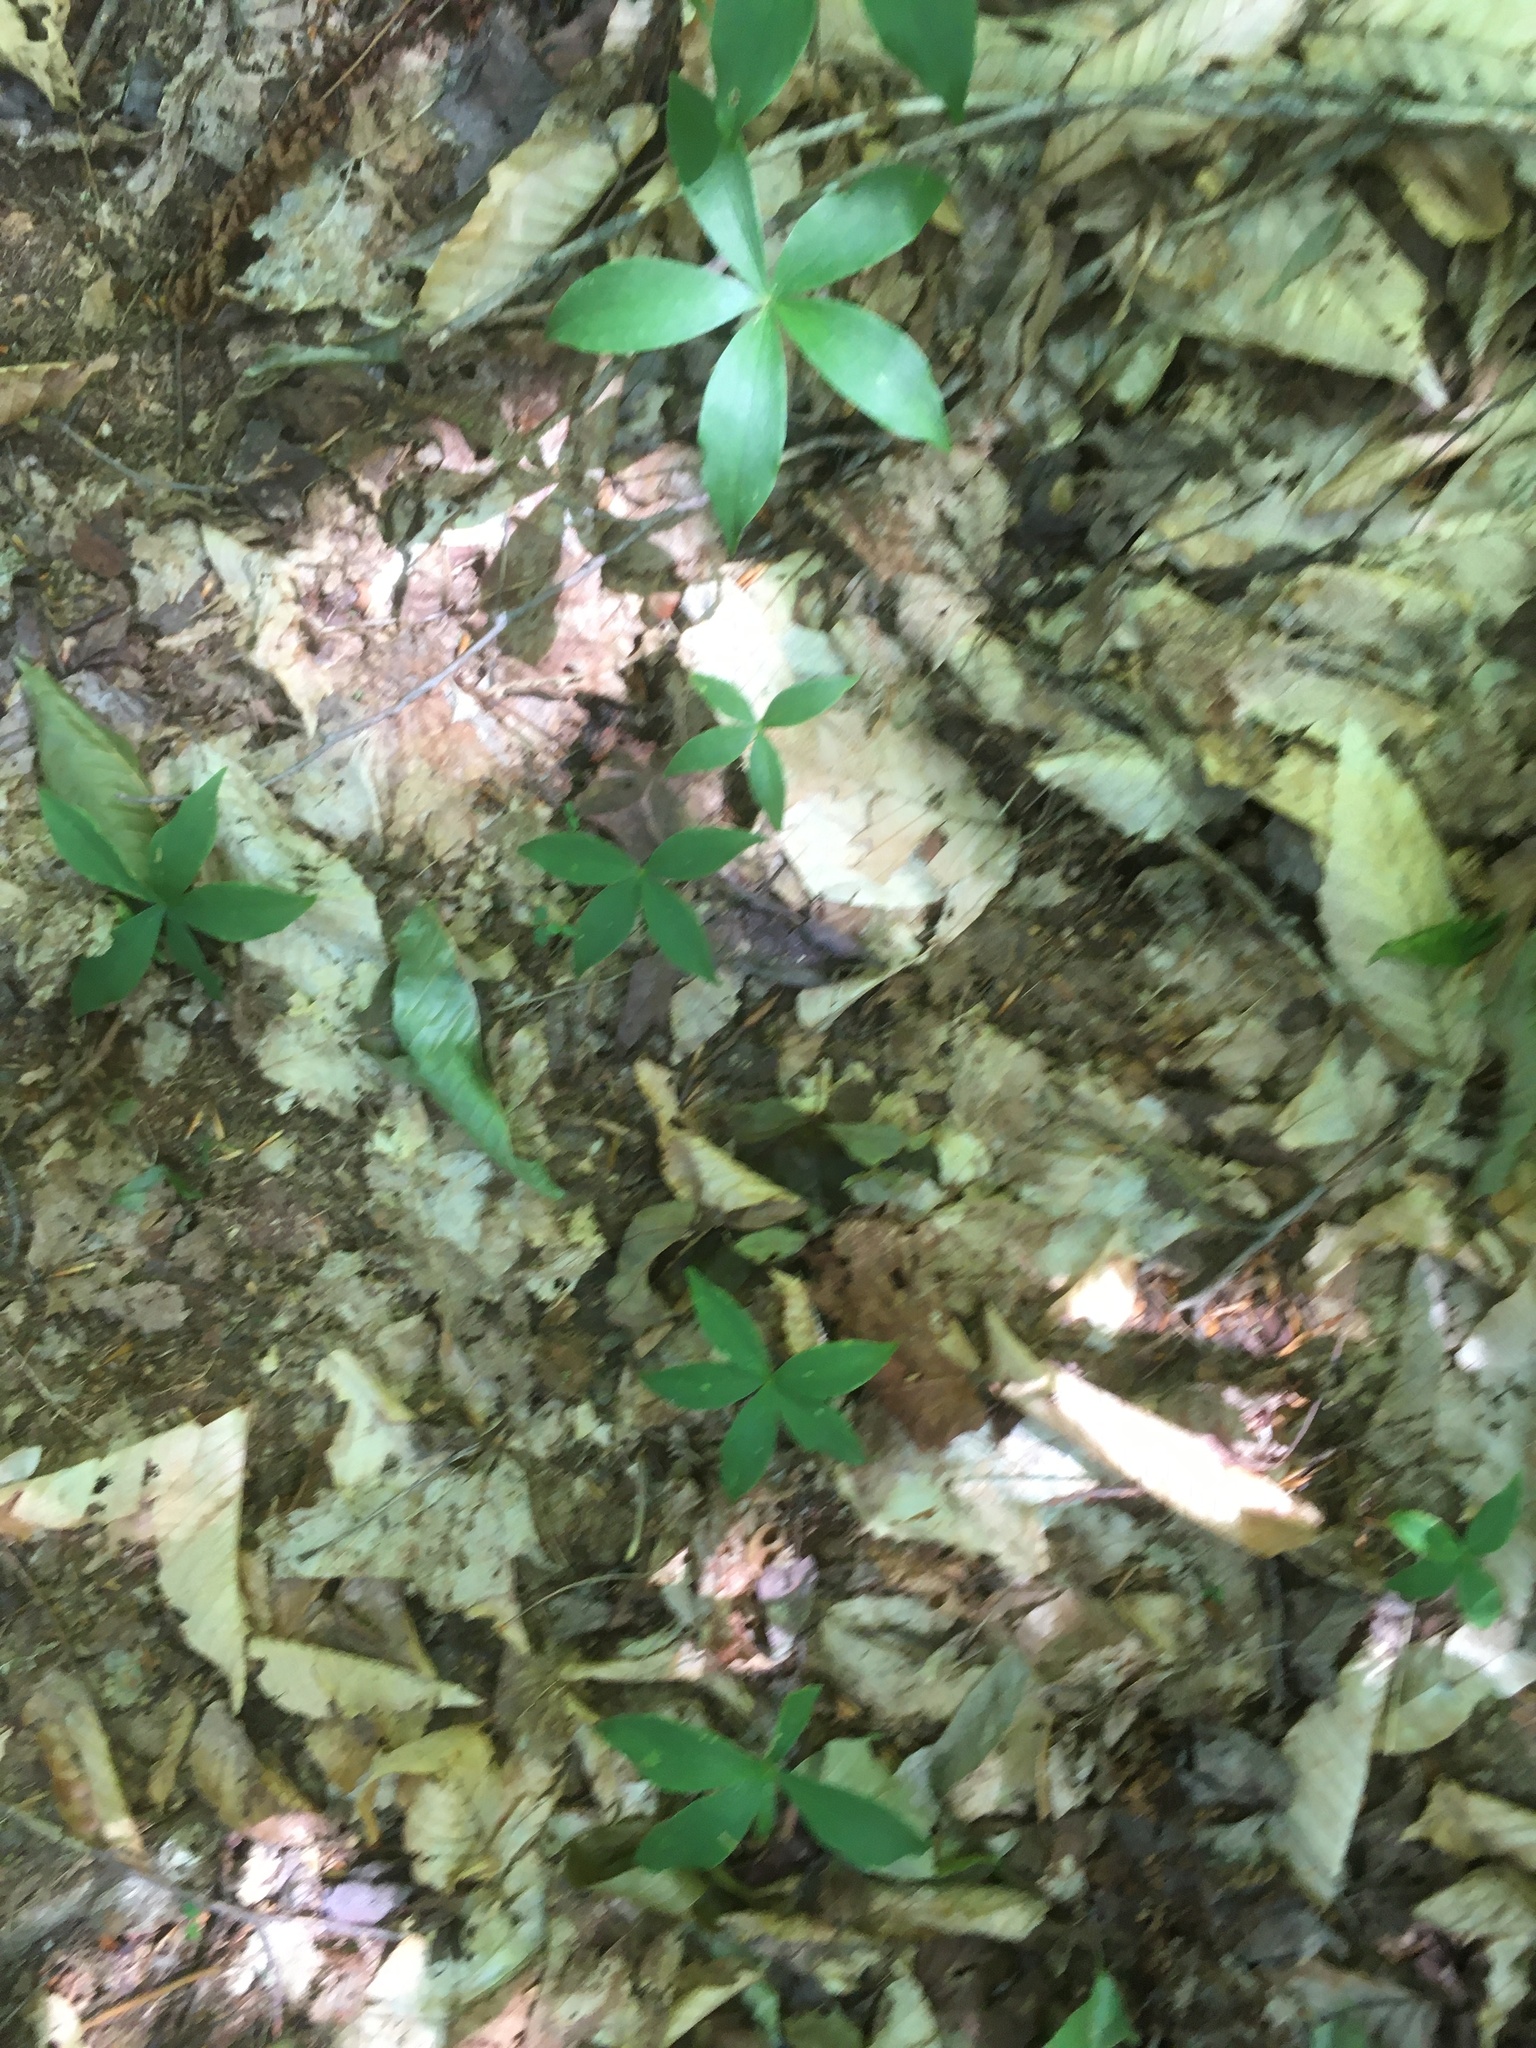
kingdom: Plantae
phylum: Tracheophyta
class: Magnoliopsida
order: Ericales
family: Primulaceae
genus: Lysimachia
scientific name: Lysimachia borealis
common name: American starflower
